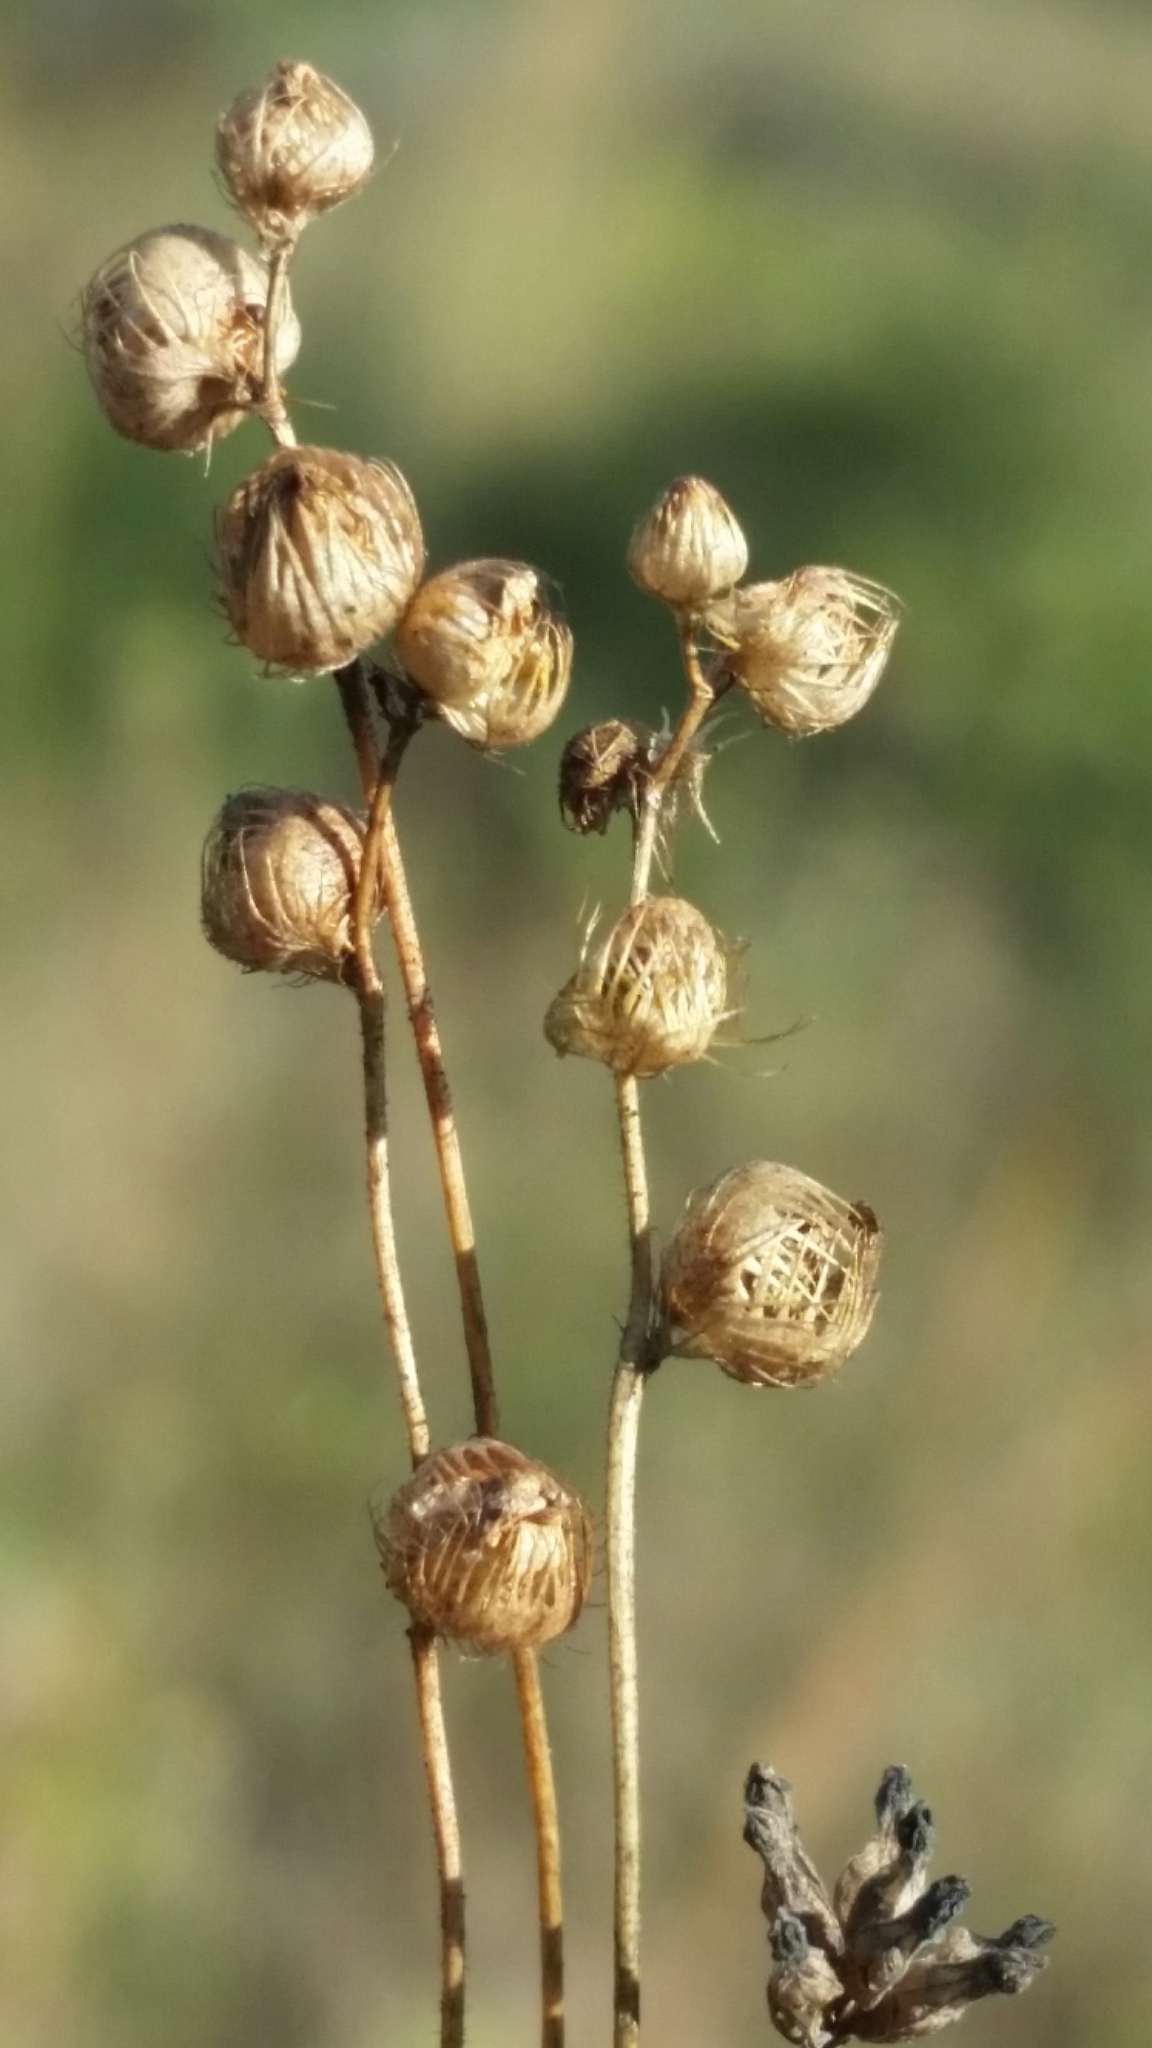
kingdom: Plantae
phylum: Tracheophyta
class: Magnoliopsida
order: Lamiales
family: Lentibulariaceae
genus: Utricularia
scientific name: Utricularia simulans
